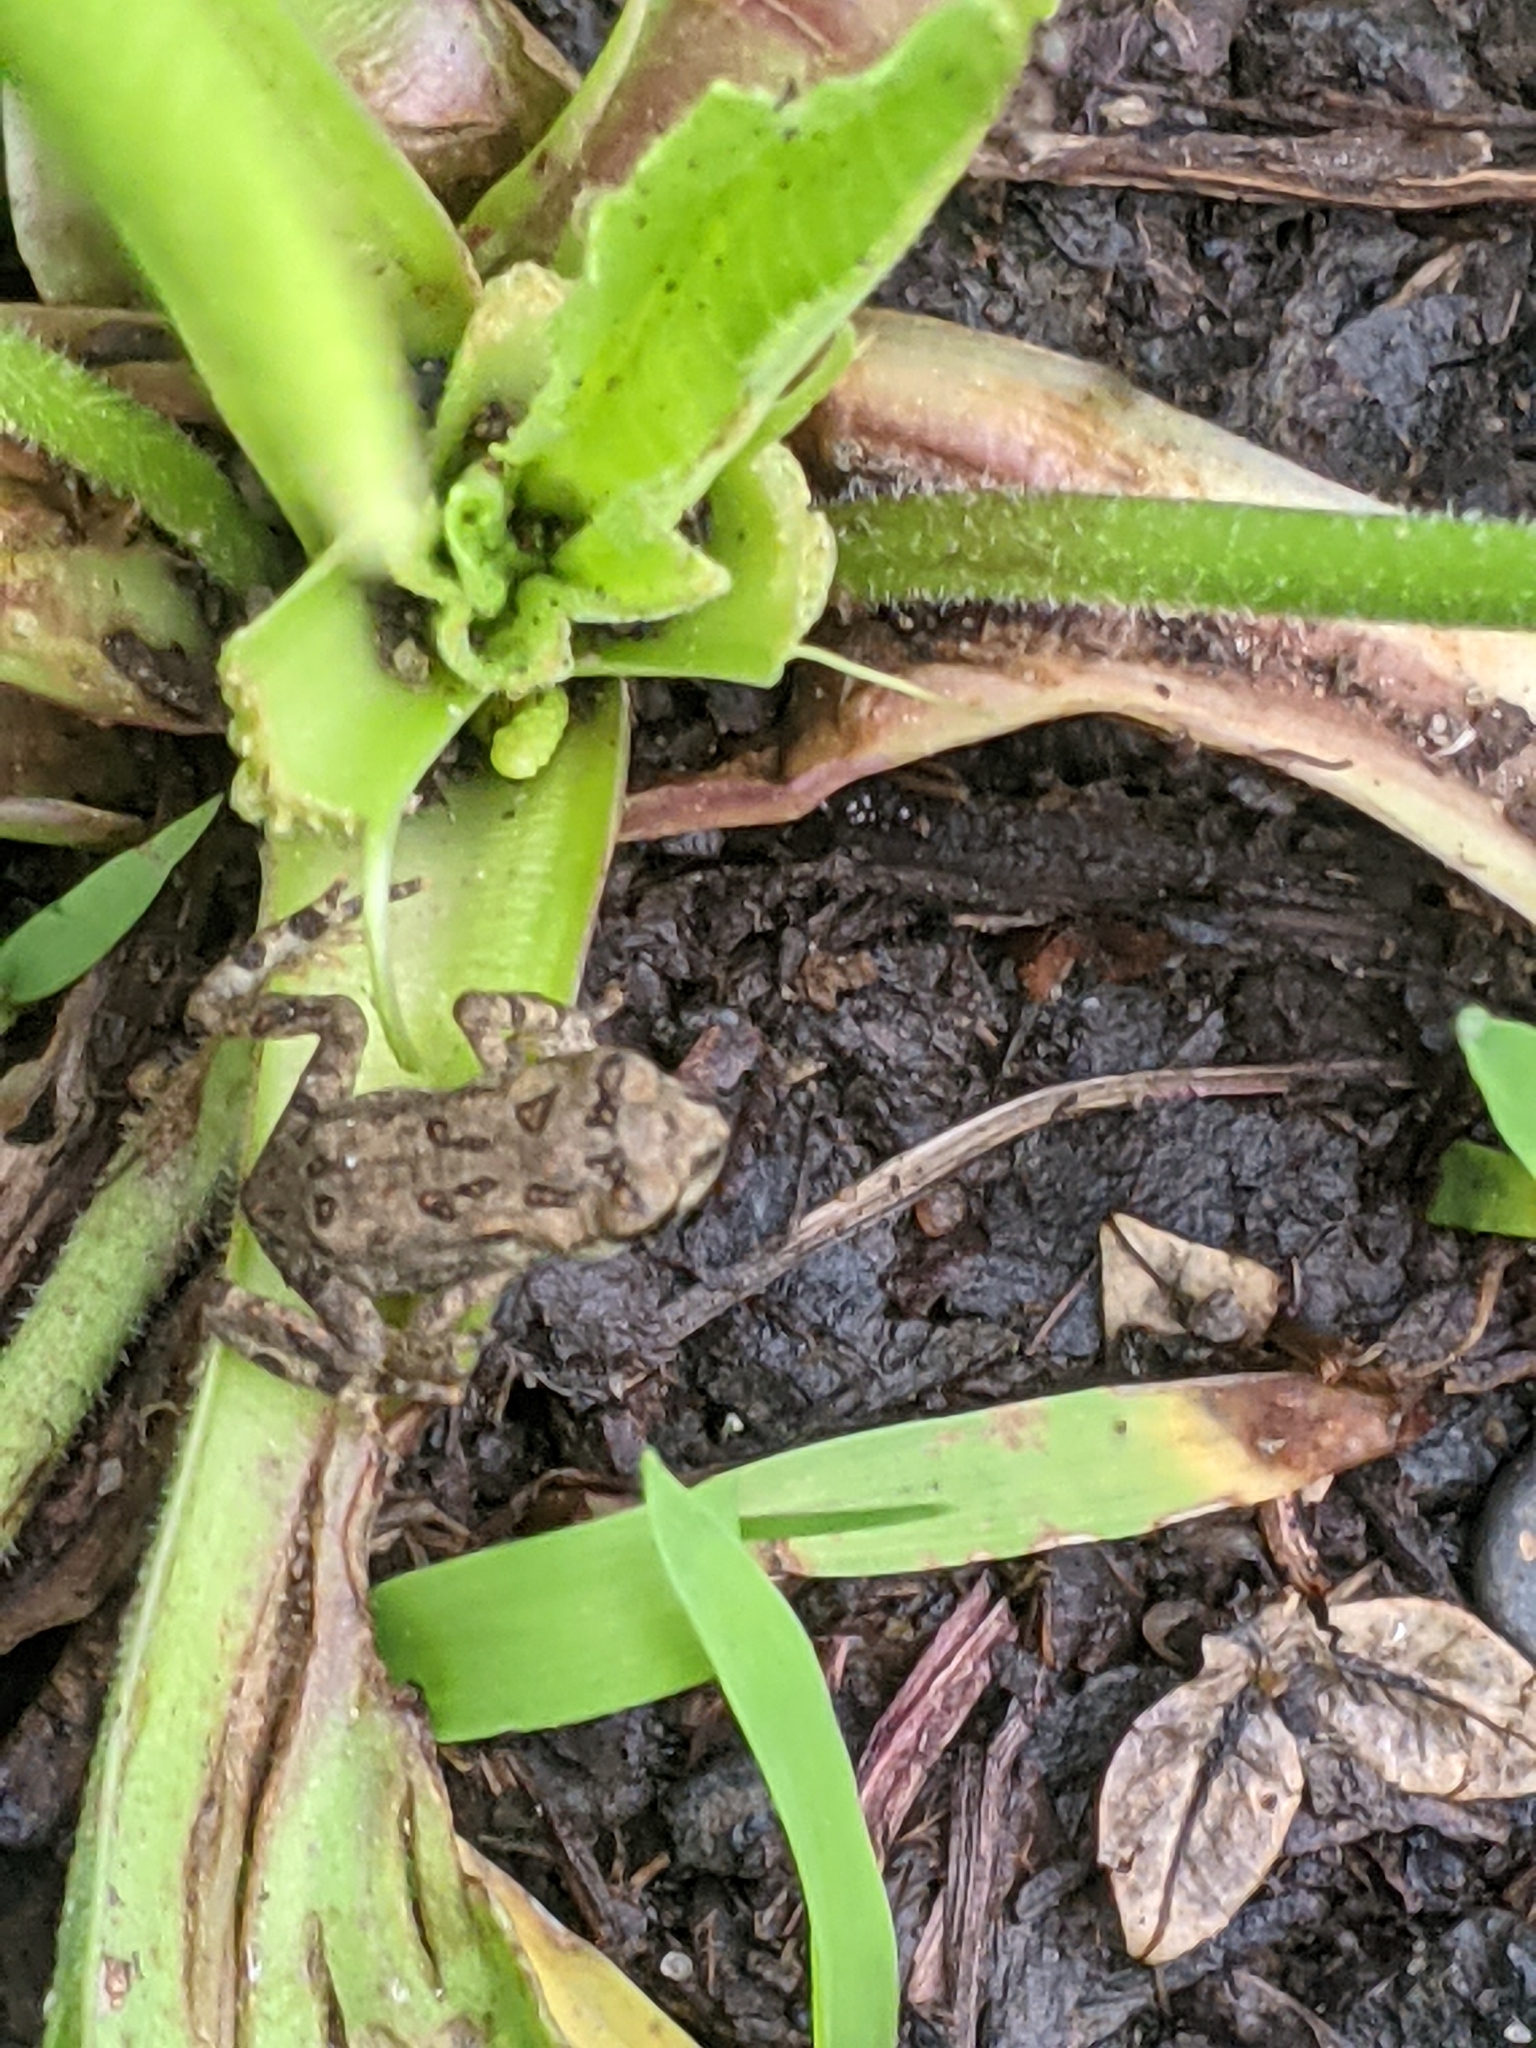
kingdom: Animalia
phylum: Chordata
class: Amphibia
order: Anura
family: Bufonidae
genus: Anaxyrus
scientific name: Anaxyrus americanus
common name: American toad
